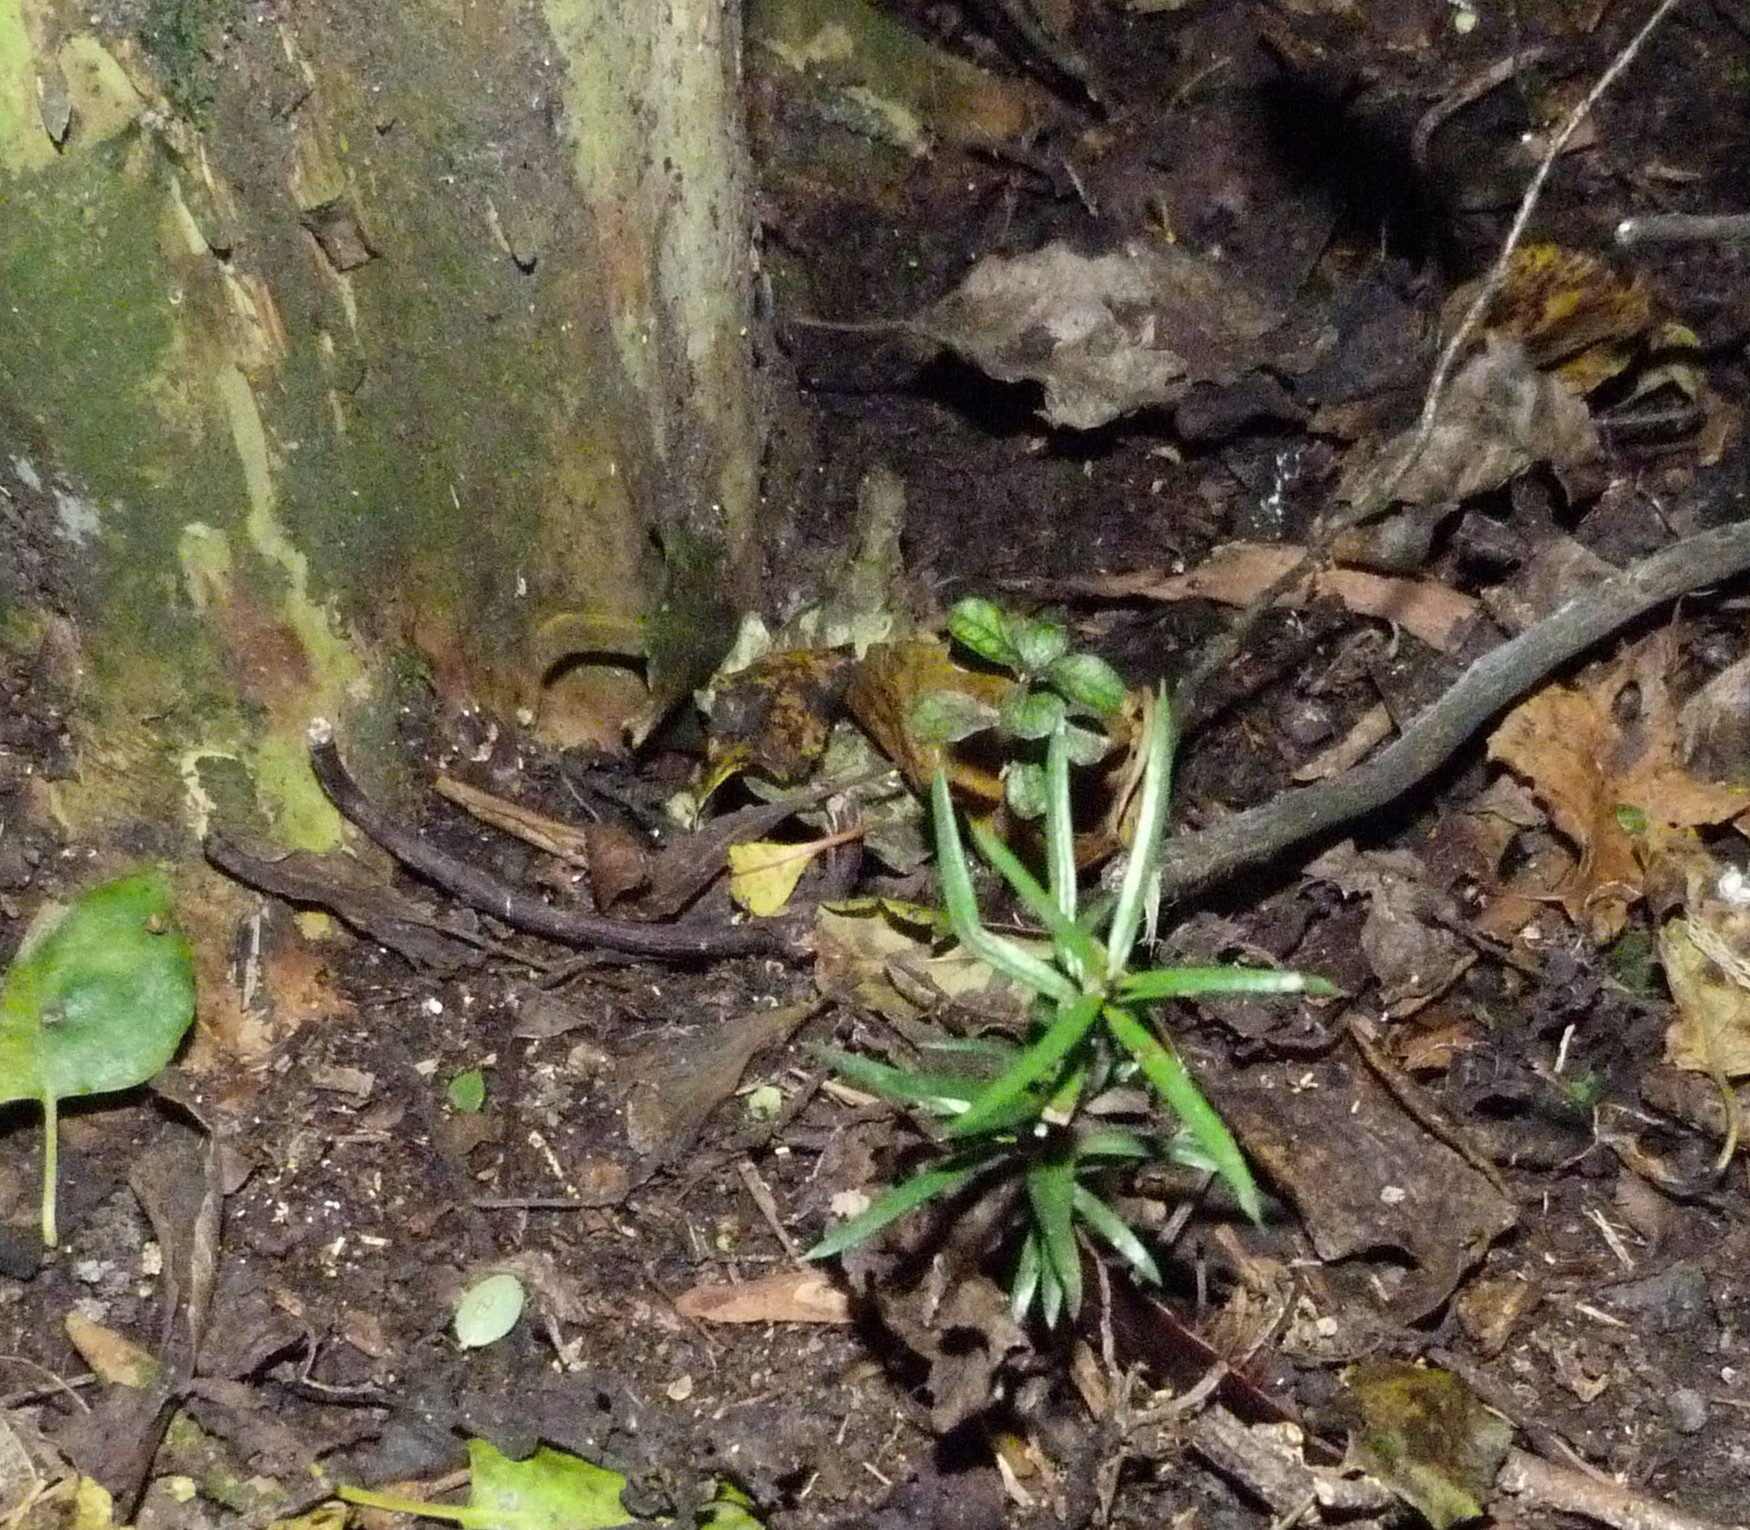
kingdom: Plantae
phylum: Tracheophyta
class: Pinopsida
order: Pinales
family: Podocarpaceae
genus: Podocarpus
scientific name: Podocarpus totara
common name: Totara
